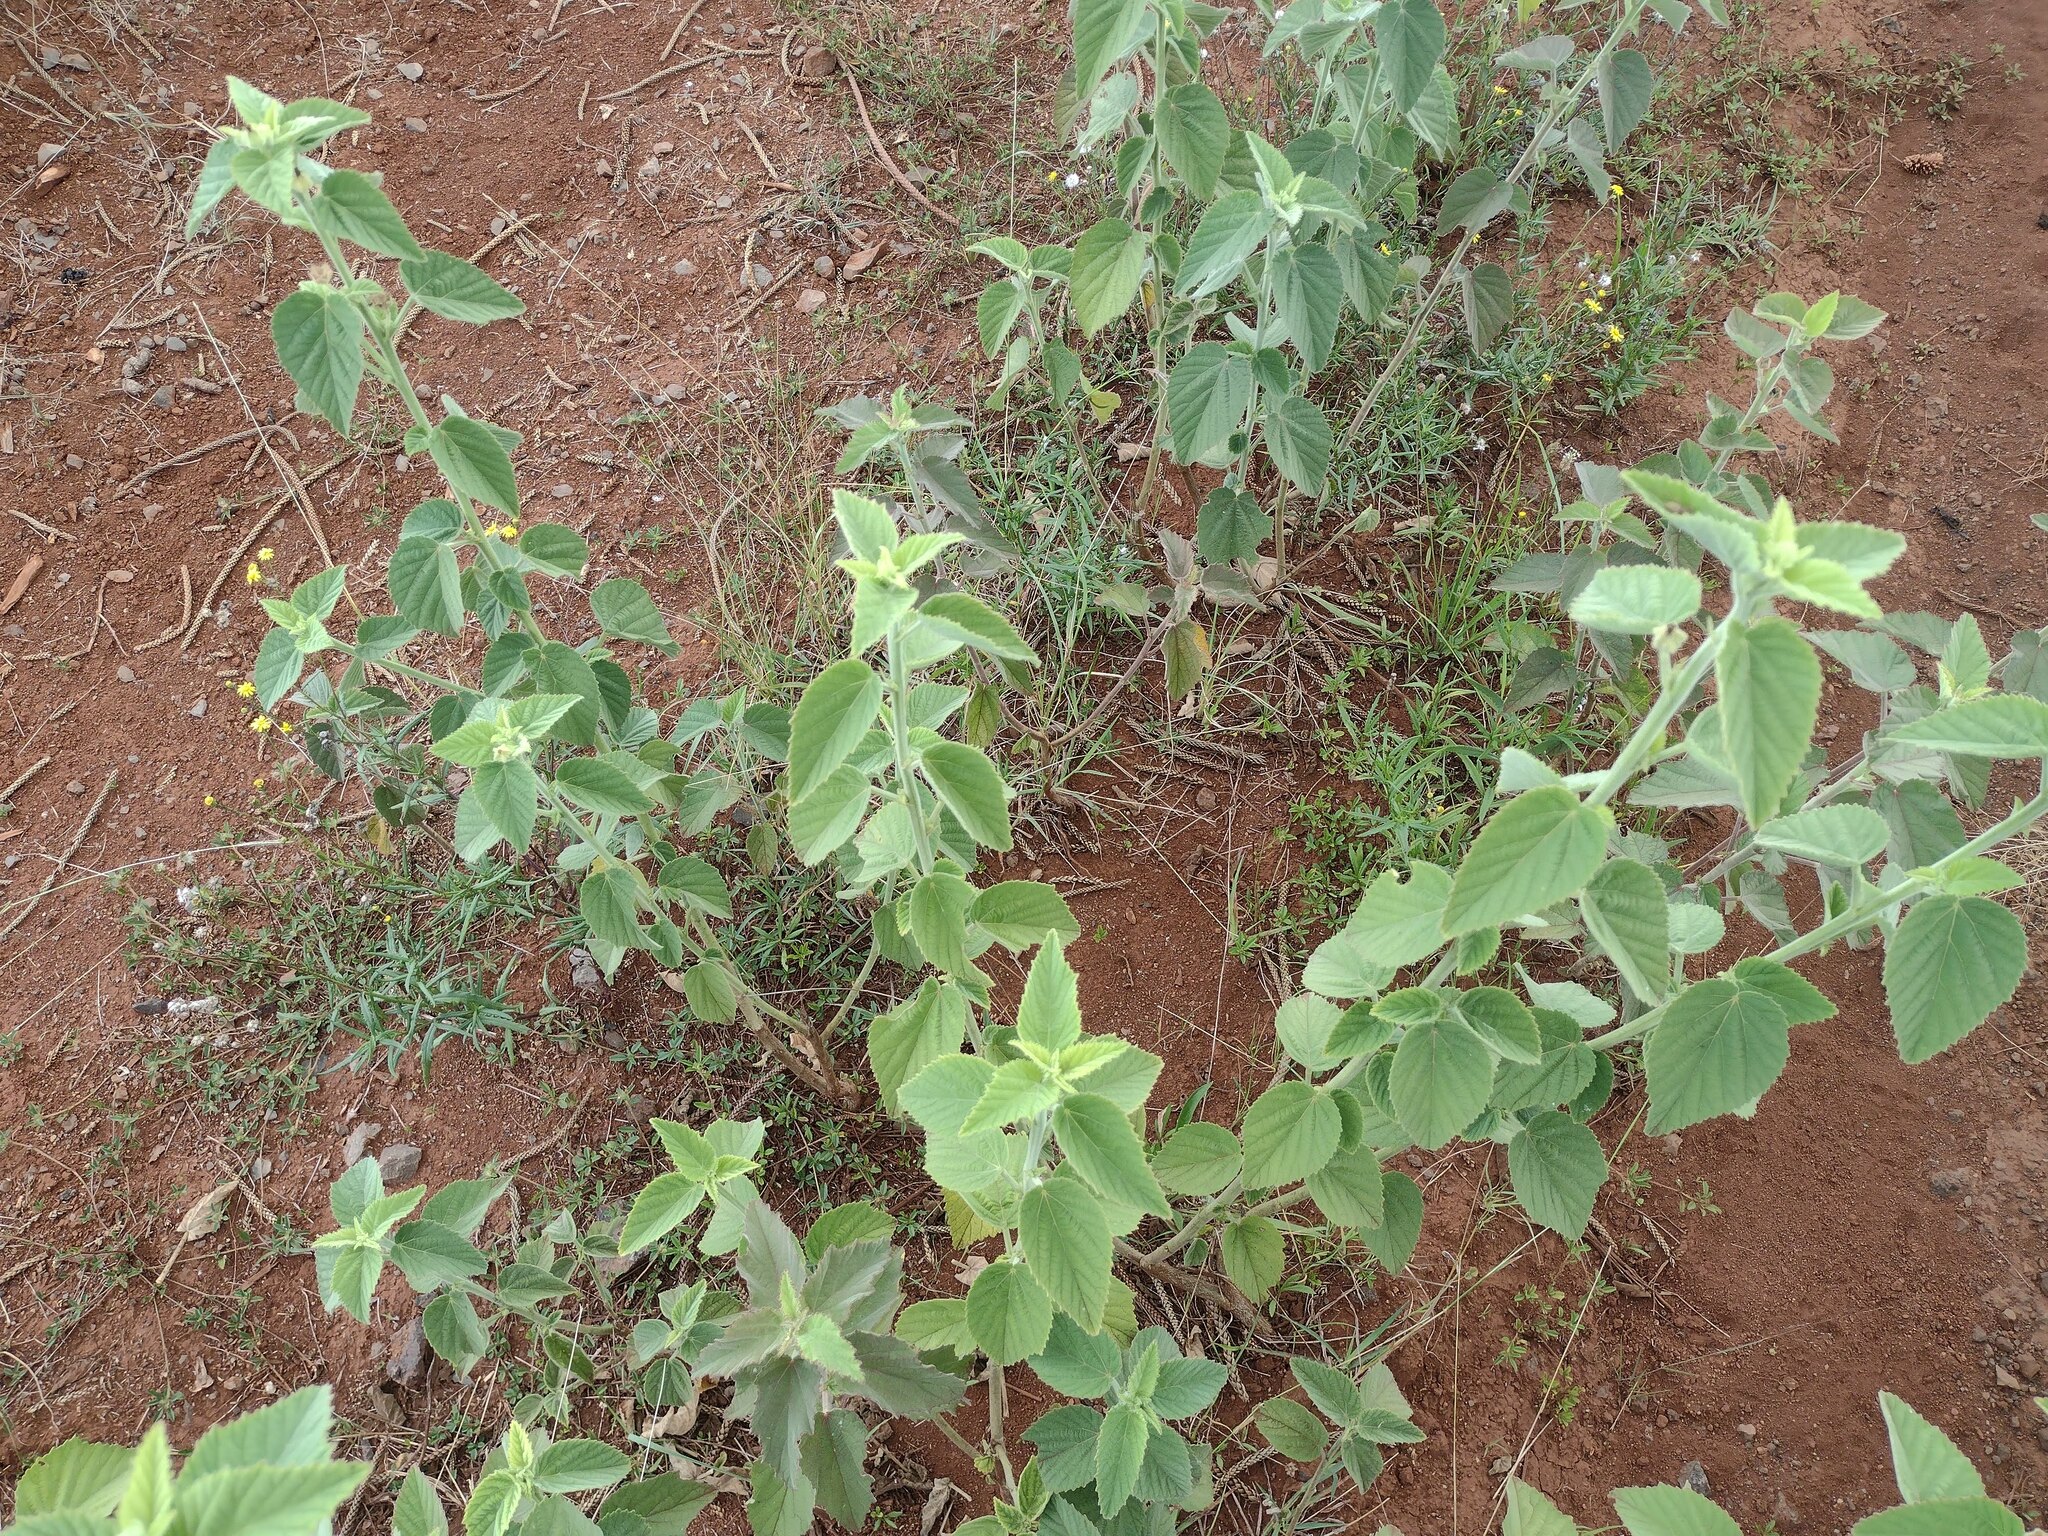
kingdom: Plantae
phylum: Tracheophyta
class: Magnoliopsida
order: Malvales
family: Malvaceae
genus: Sida
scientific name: Sida cordifolia
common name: Ilima
